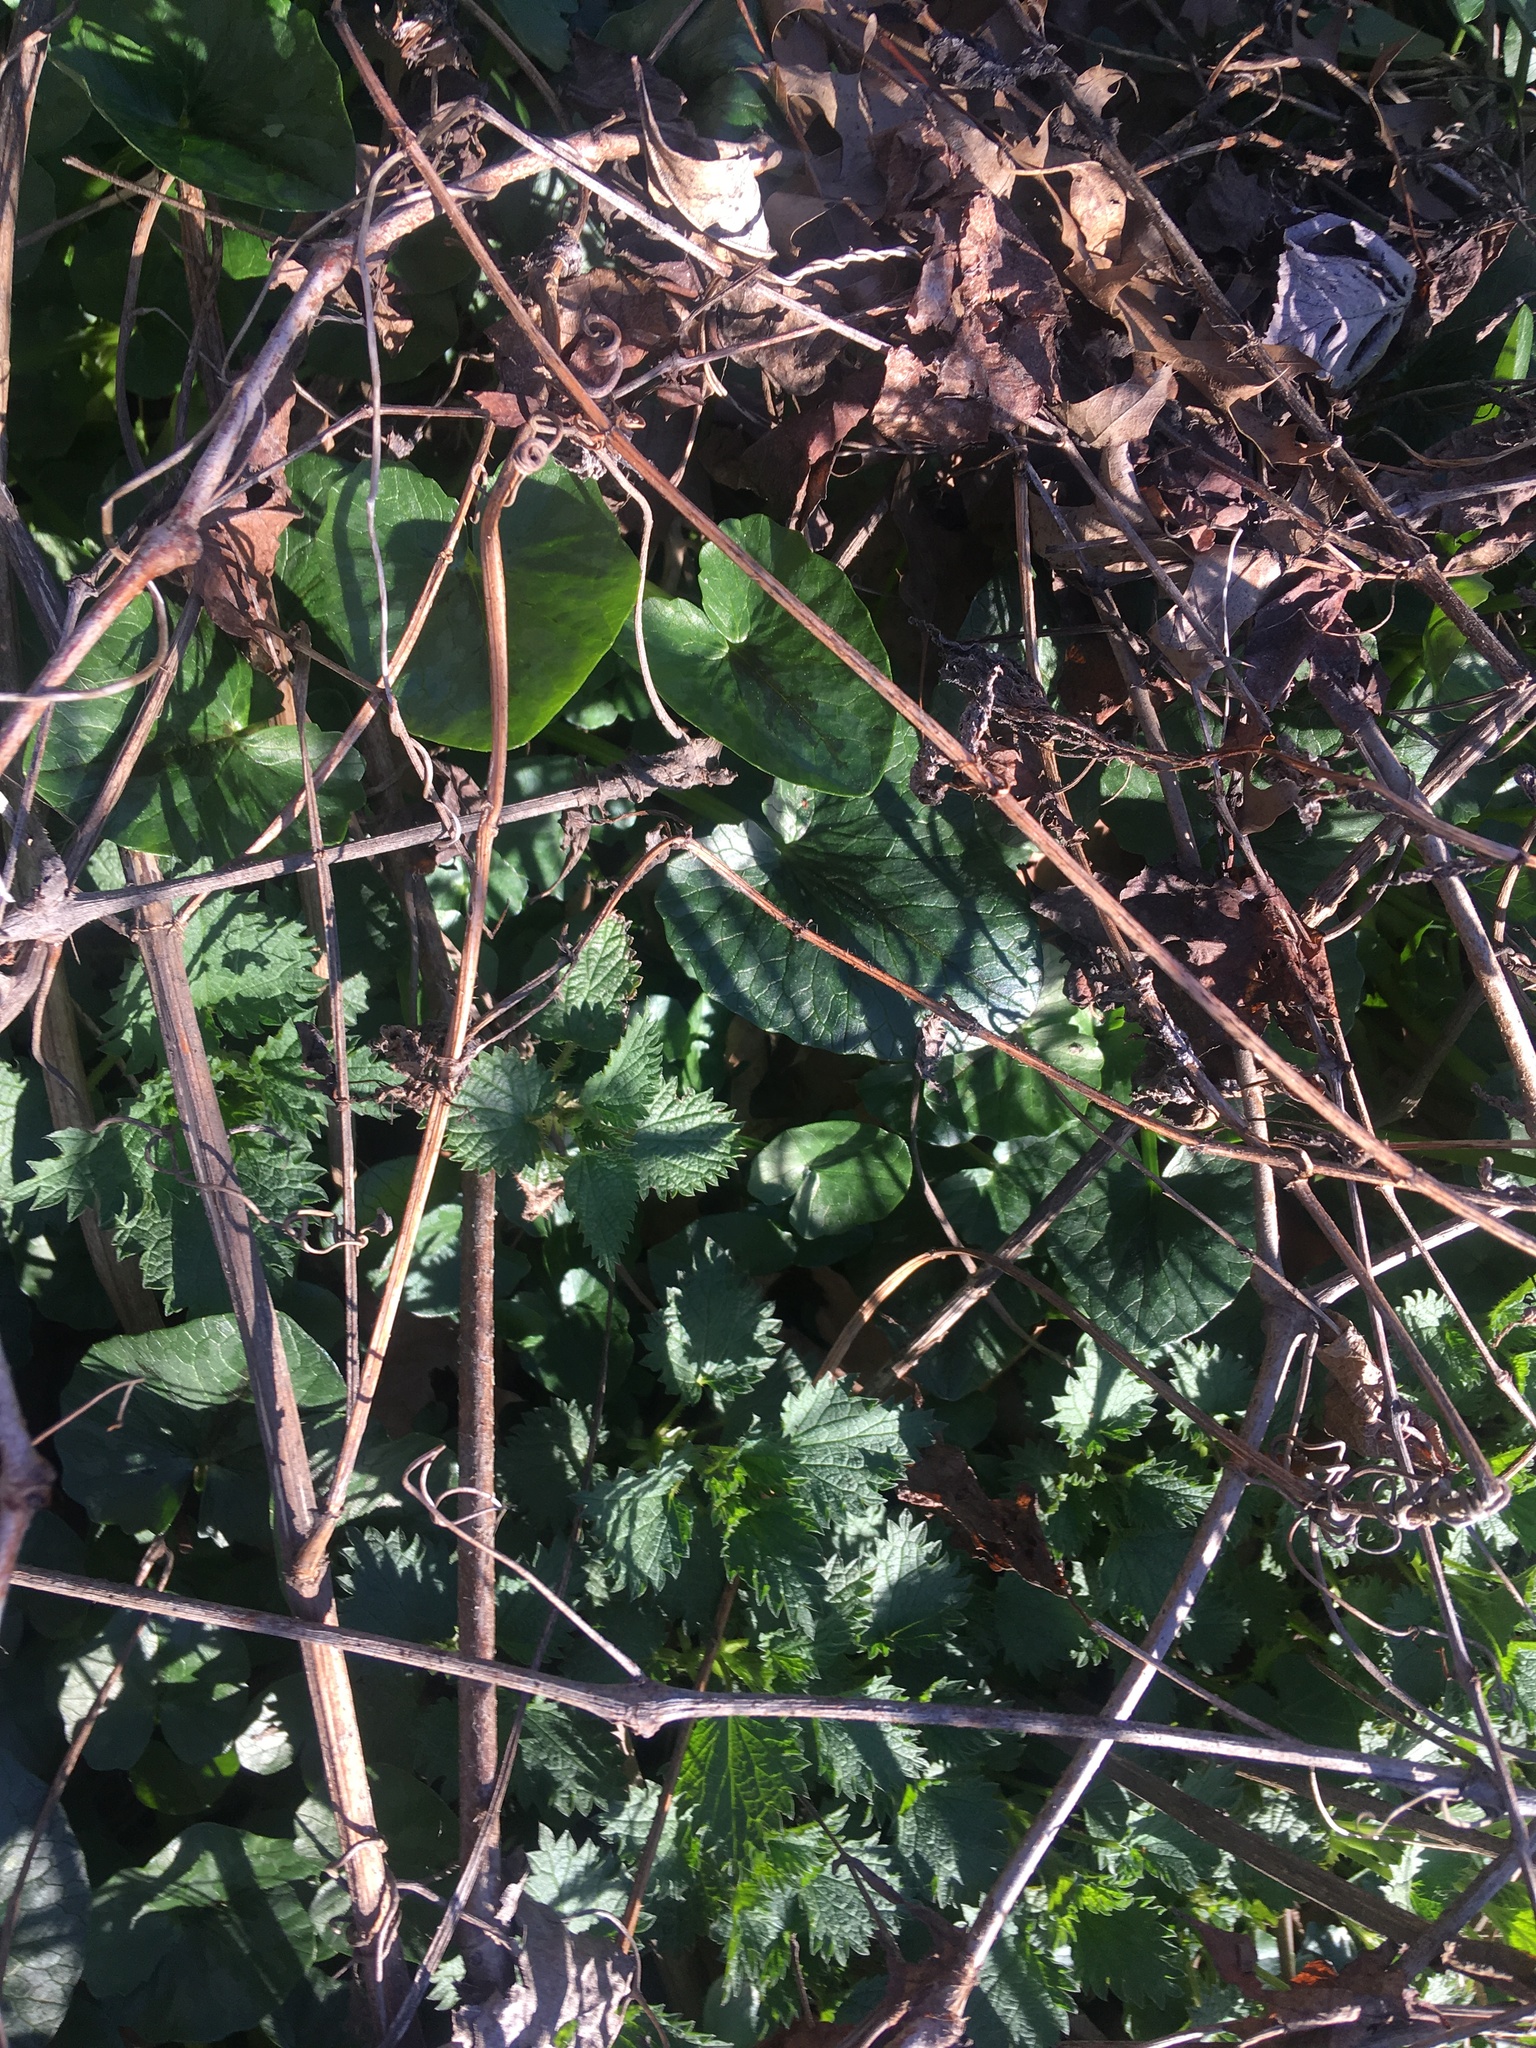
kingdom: Plantae
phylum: Tracheophyta
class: Magnoliopsida
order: Ranunculales
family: Ranunculaceae
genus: Ficaria
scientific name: Ficaria verna
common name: Lesser celandine
